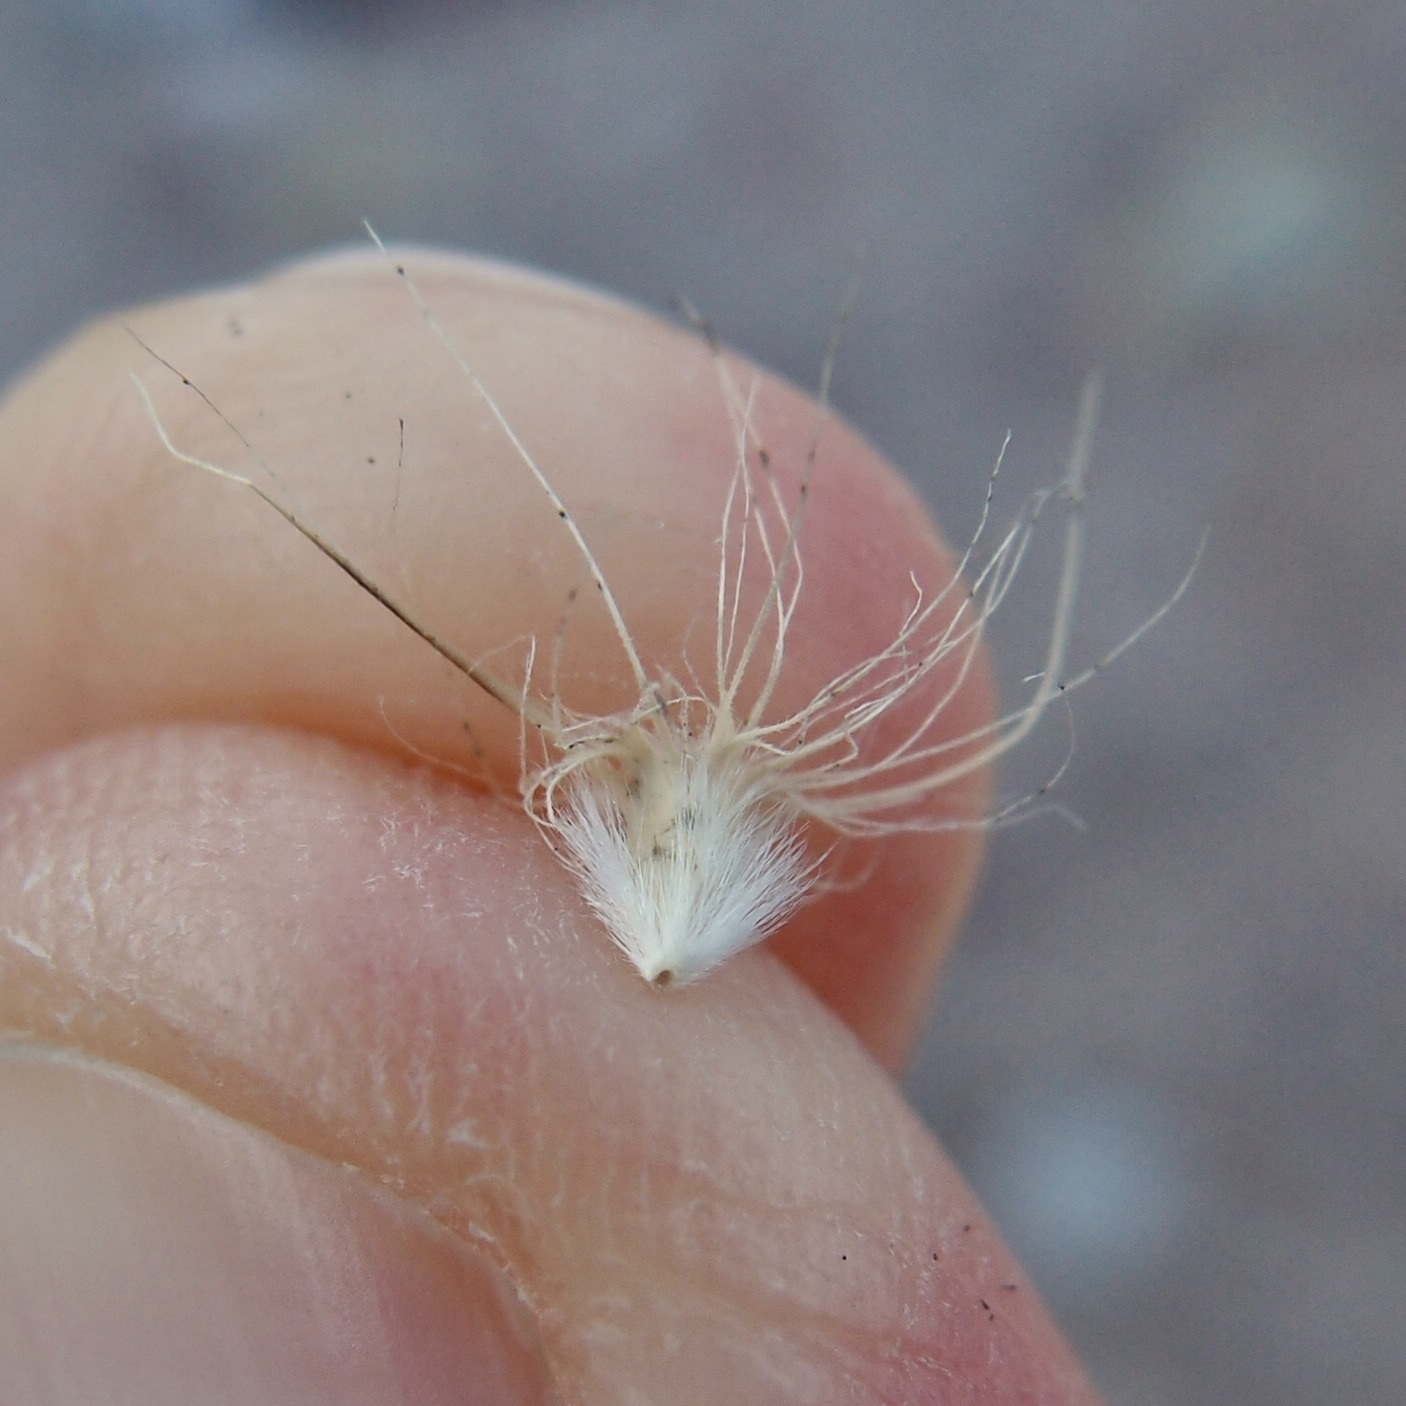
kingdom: Plantae
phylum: Tracheophyta
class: Liliopsida
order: Poales
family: Poaceae
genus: Pappophorum
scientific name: Pappophorum philippianum
